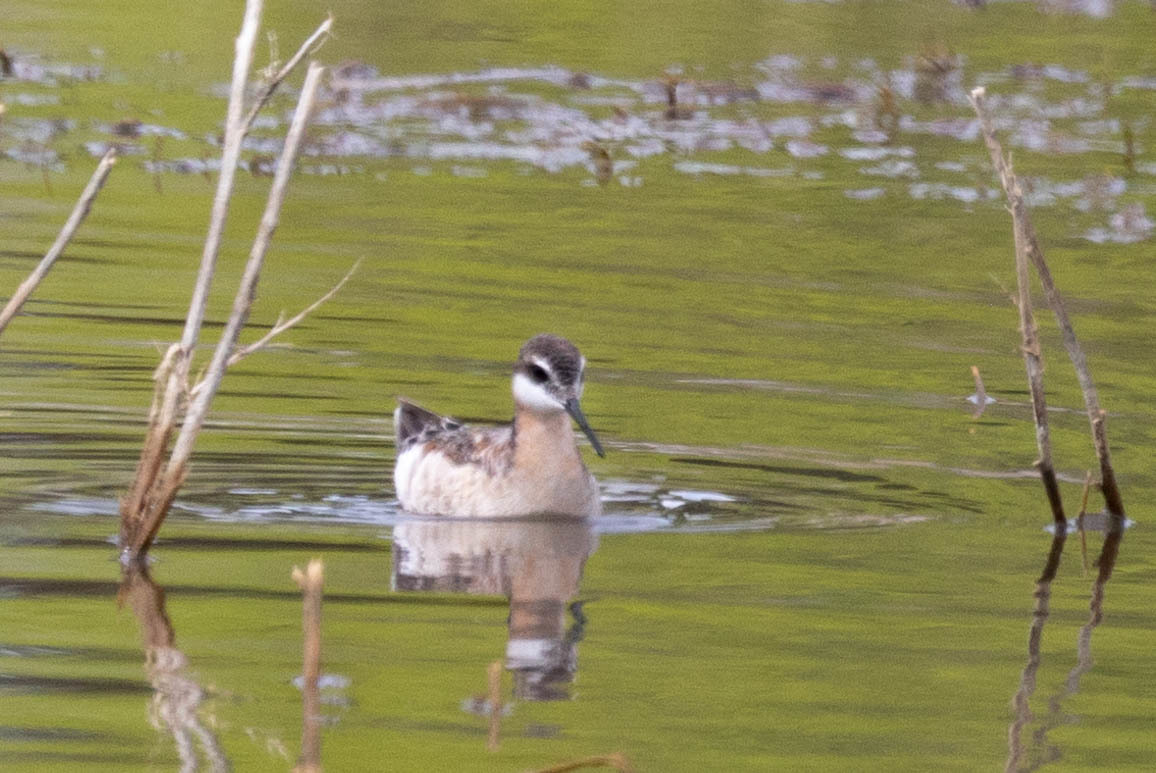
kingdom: Animalia
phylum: Chordata
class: Aves
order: Charadriiformes
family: Scolopacidae
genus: Phalaropus
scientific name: Phalaropus tricolor
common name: Wilson's phalarope
